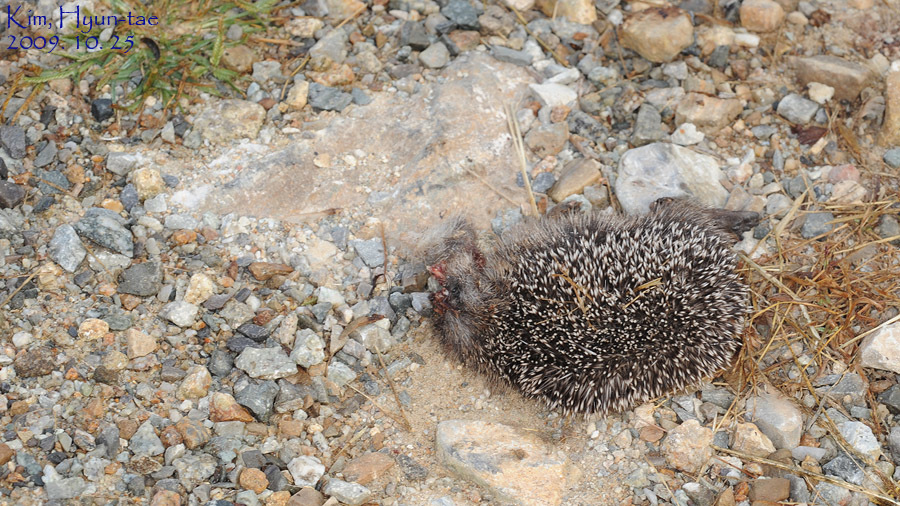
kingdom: Animalia
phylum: Chordata
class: Mammalia
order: Erinaceomorpha
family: Erinaceidae
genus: Erinaceus
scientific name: Erinaceus amurensis
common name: Amur hedgehog
